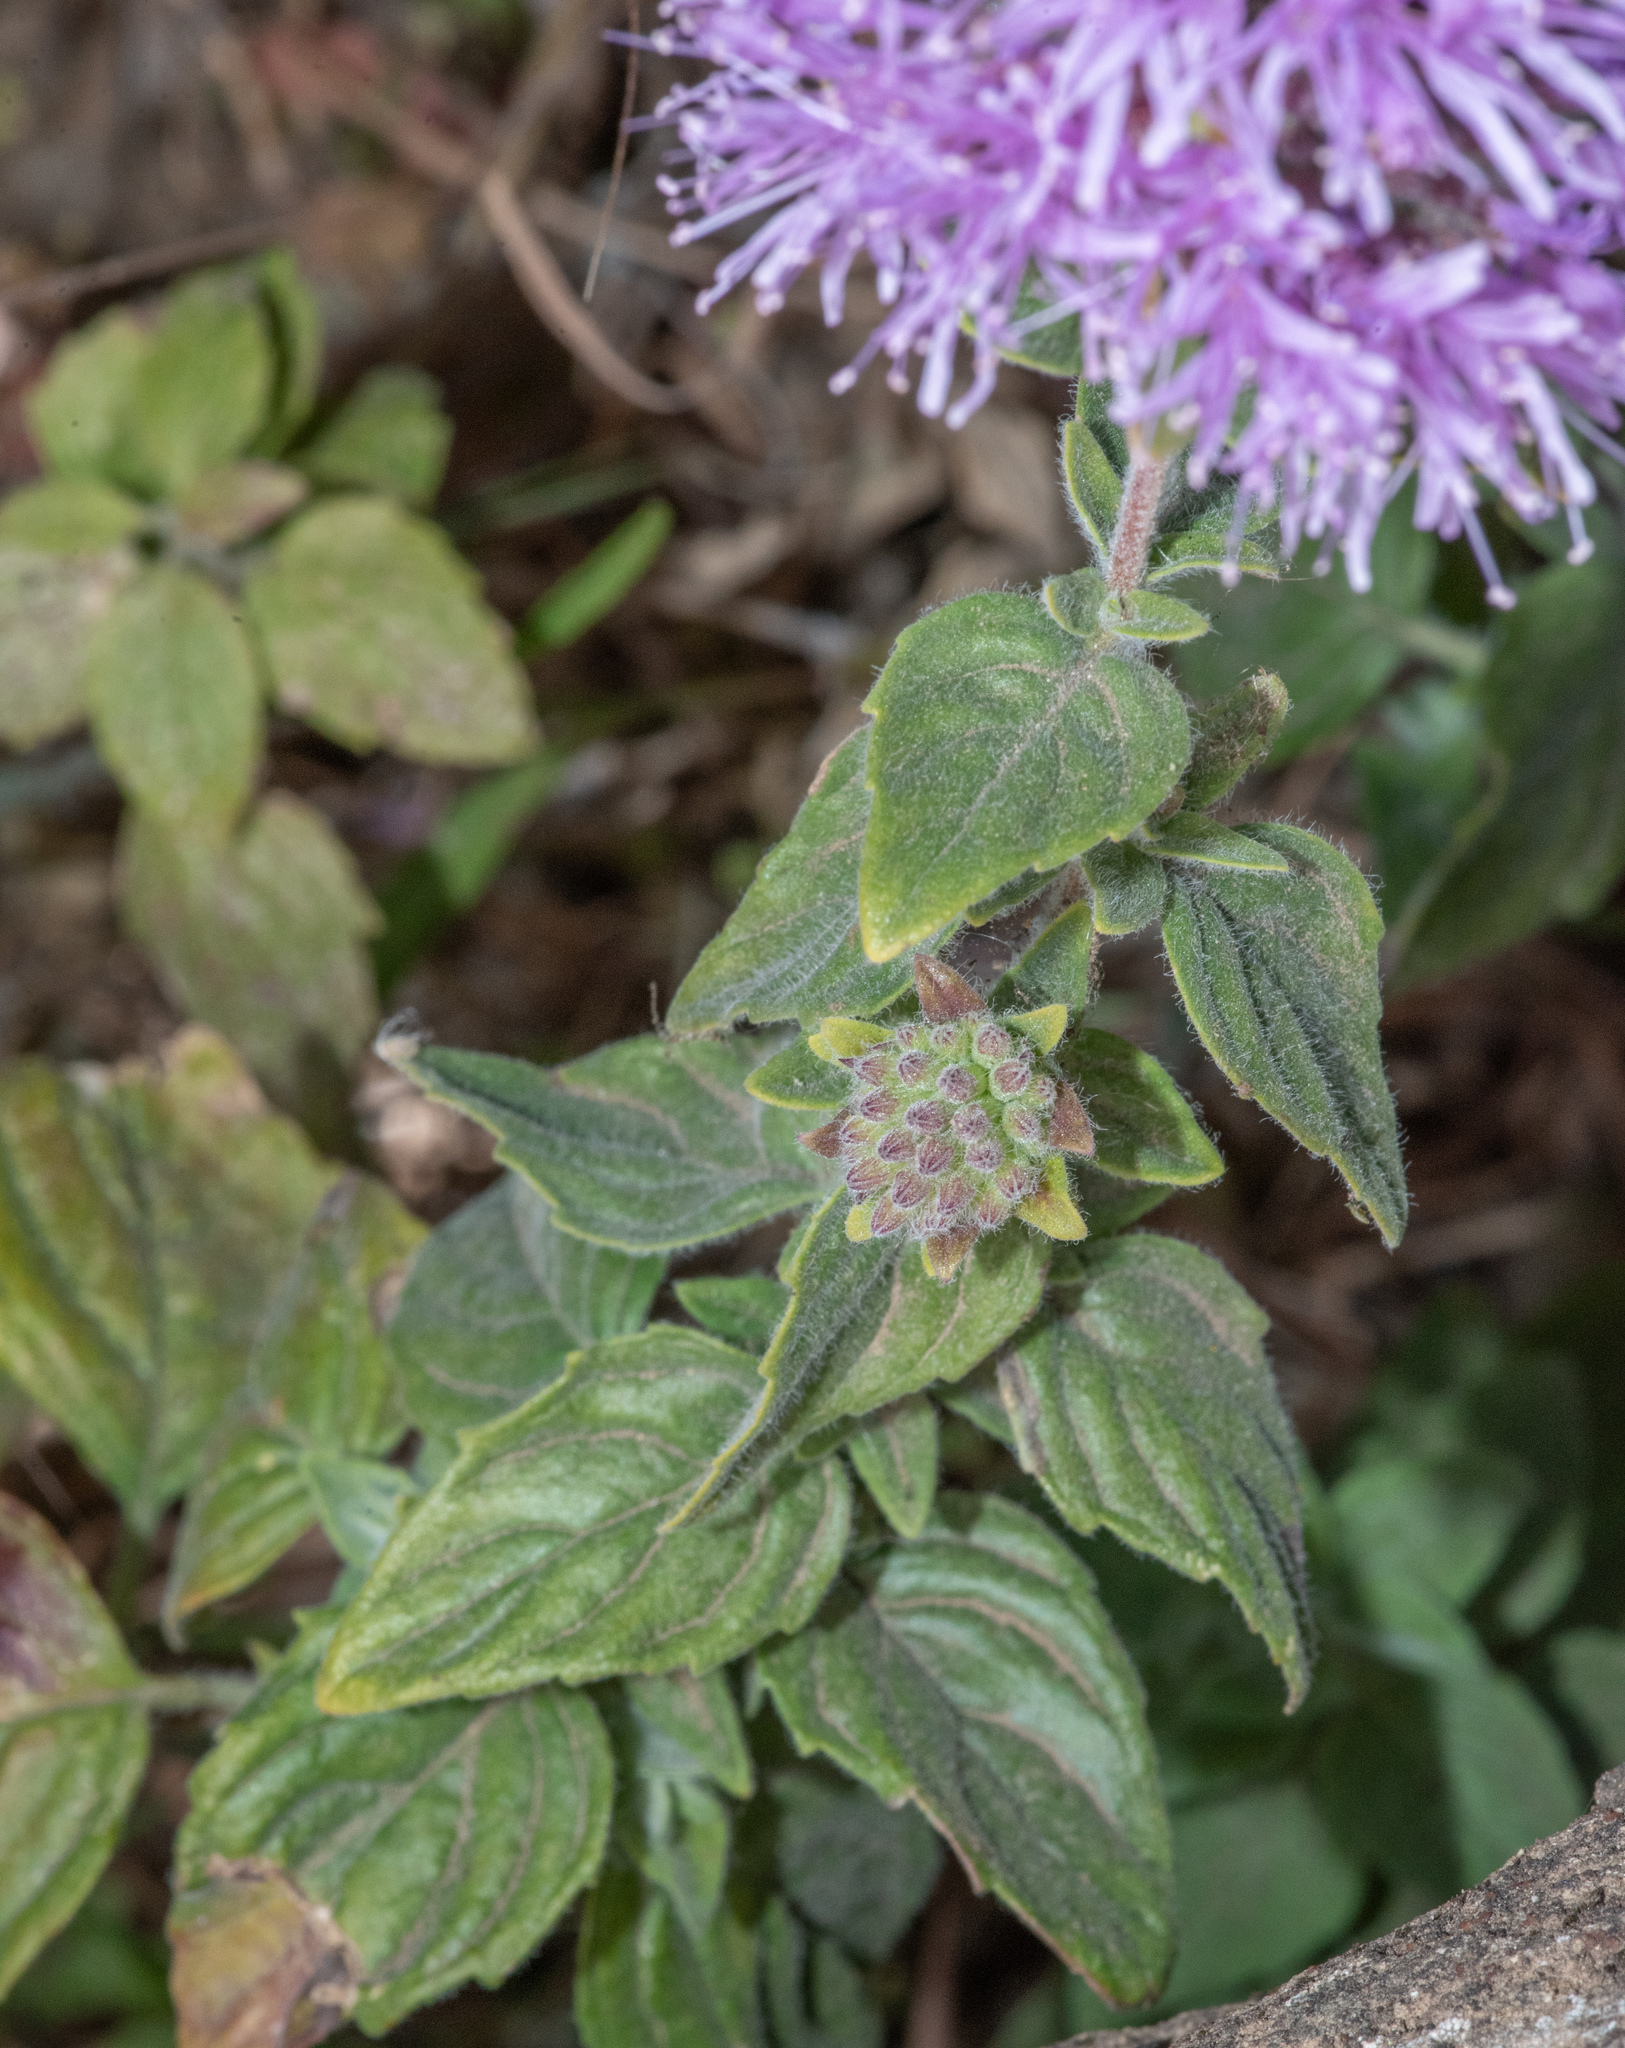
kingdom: Plantae
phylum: Tracheophyta
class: Magnoliopsida
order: Lamiales
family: Lamiaceae
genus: Monardella
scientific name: Monardella odoratissima
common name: Pacific monardella
